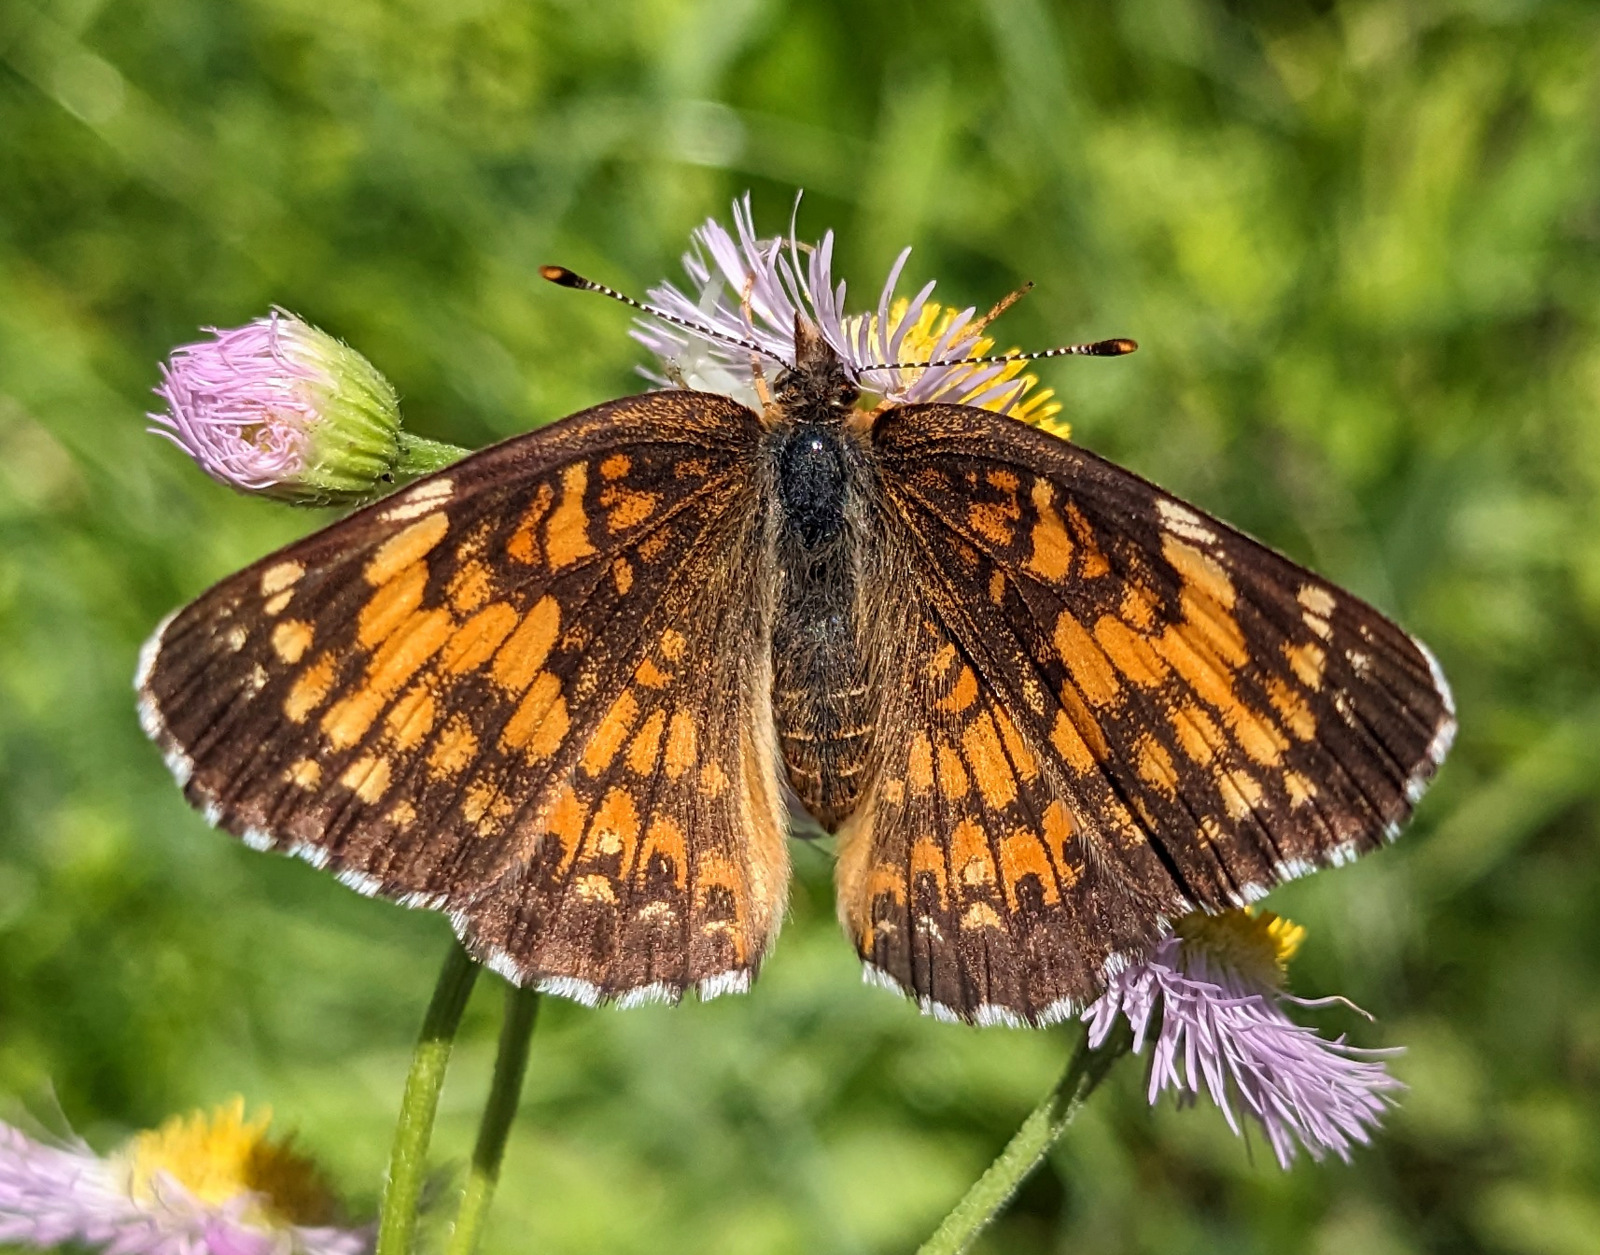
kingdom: Animalia
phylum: Arthropoda
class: Insecta
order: Lepidoptera
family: Nymphalidae
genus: Chlosyne
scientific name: Chlosyne harrisii
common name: Harris's checkerspot
